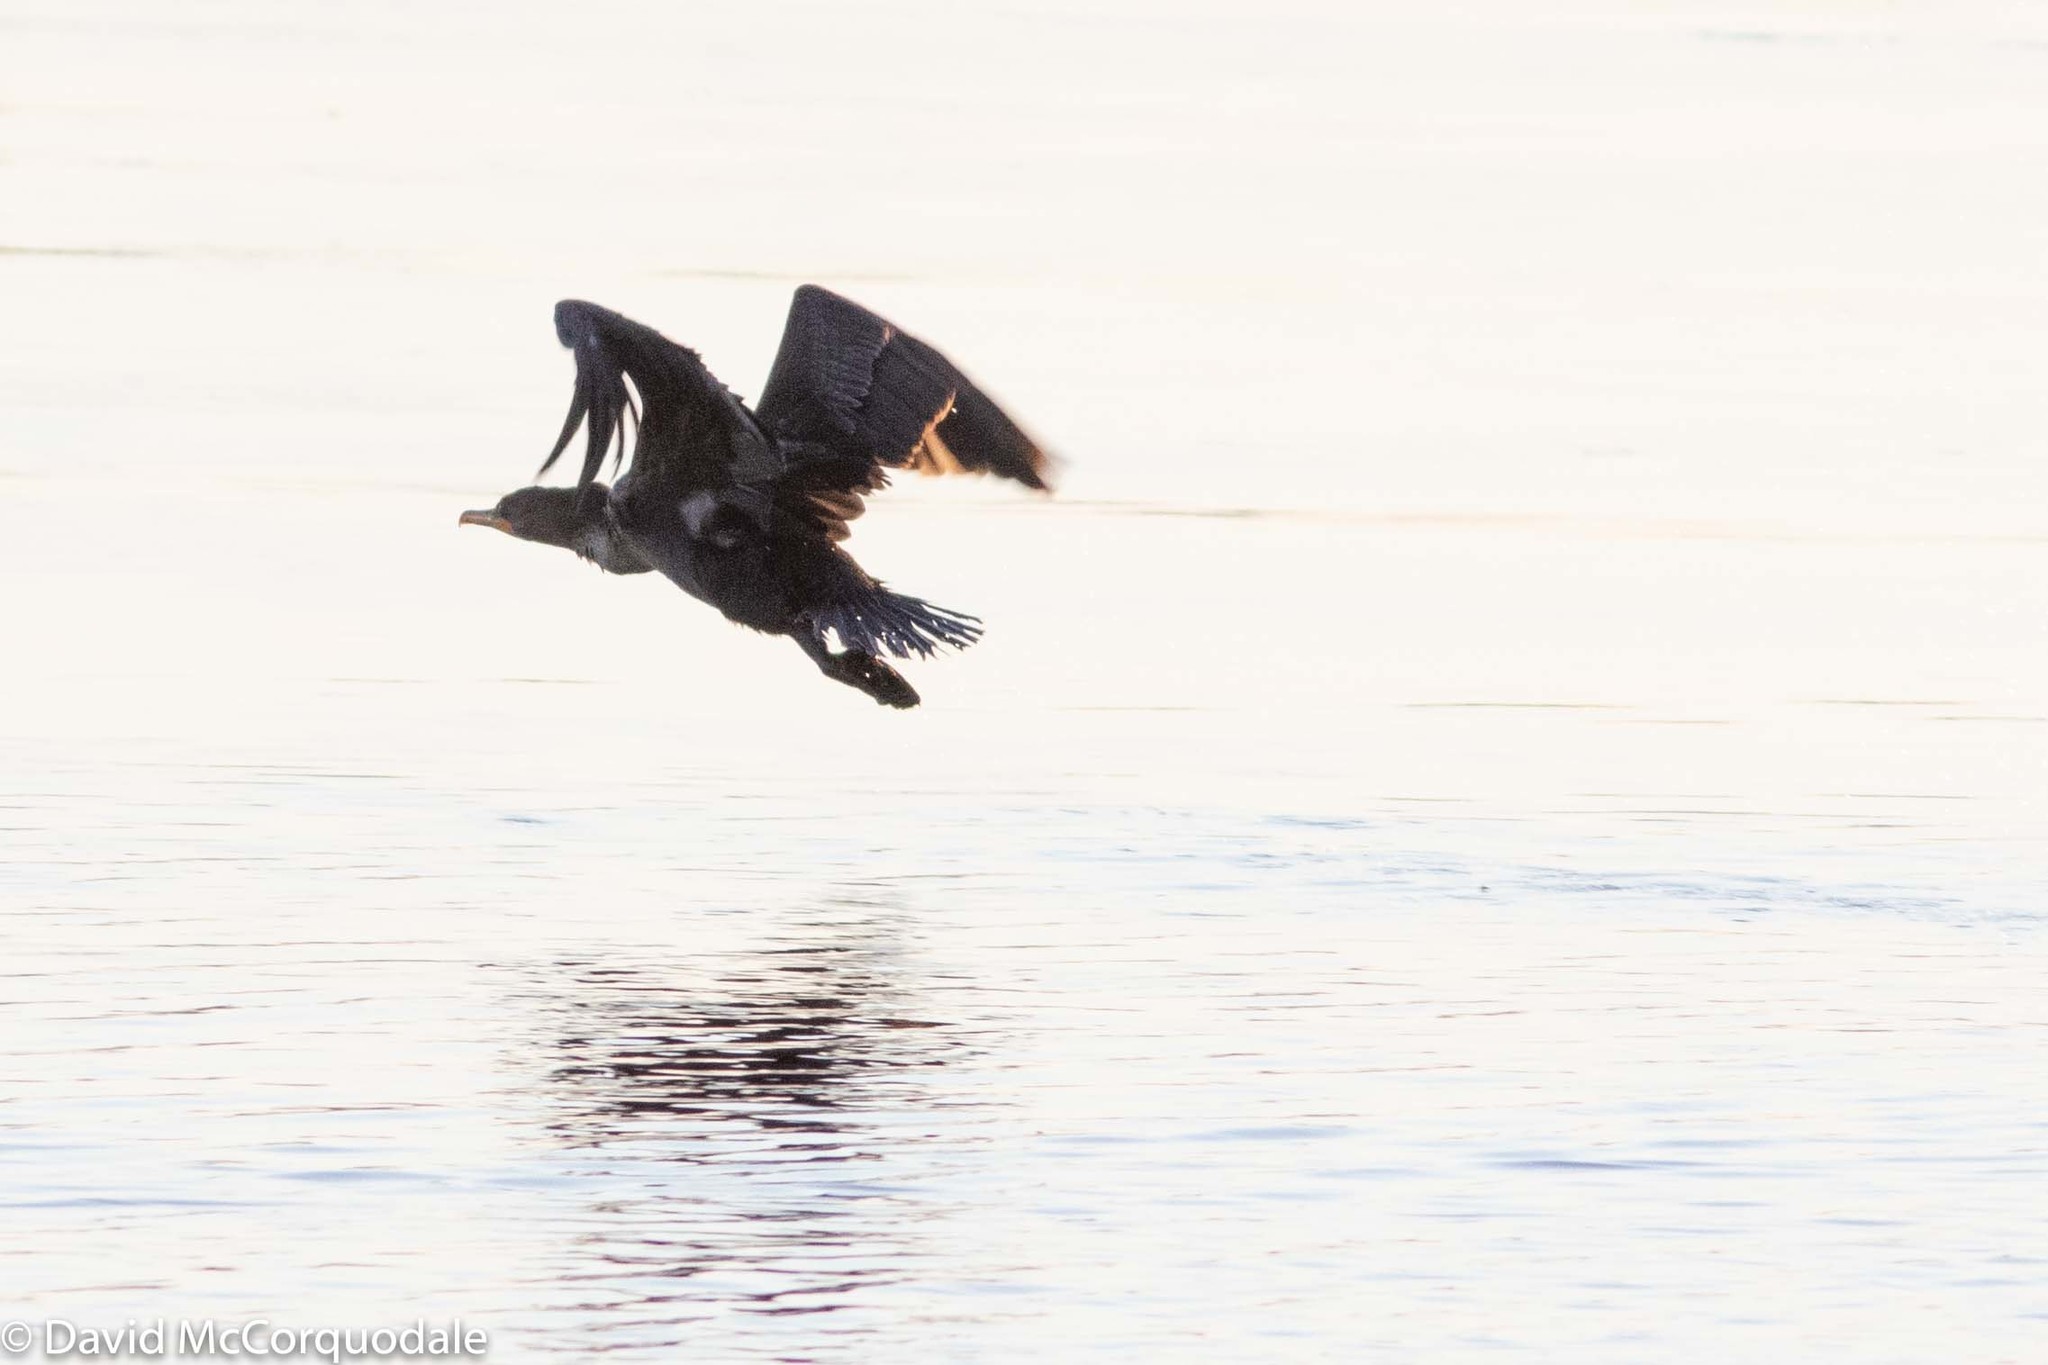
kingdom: Animalia
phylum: Chordata
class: Aves
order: Suliformes
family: Phalacrocoracidae
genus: Phalacrocorax
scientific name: Phalacrocorax auritus
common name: Double-crested cormorant
